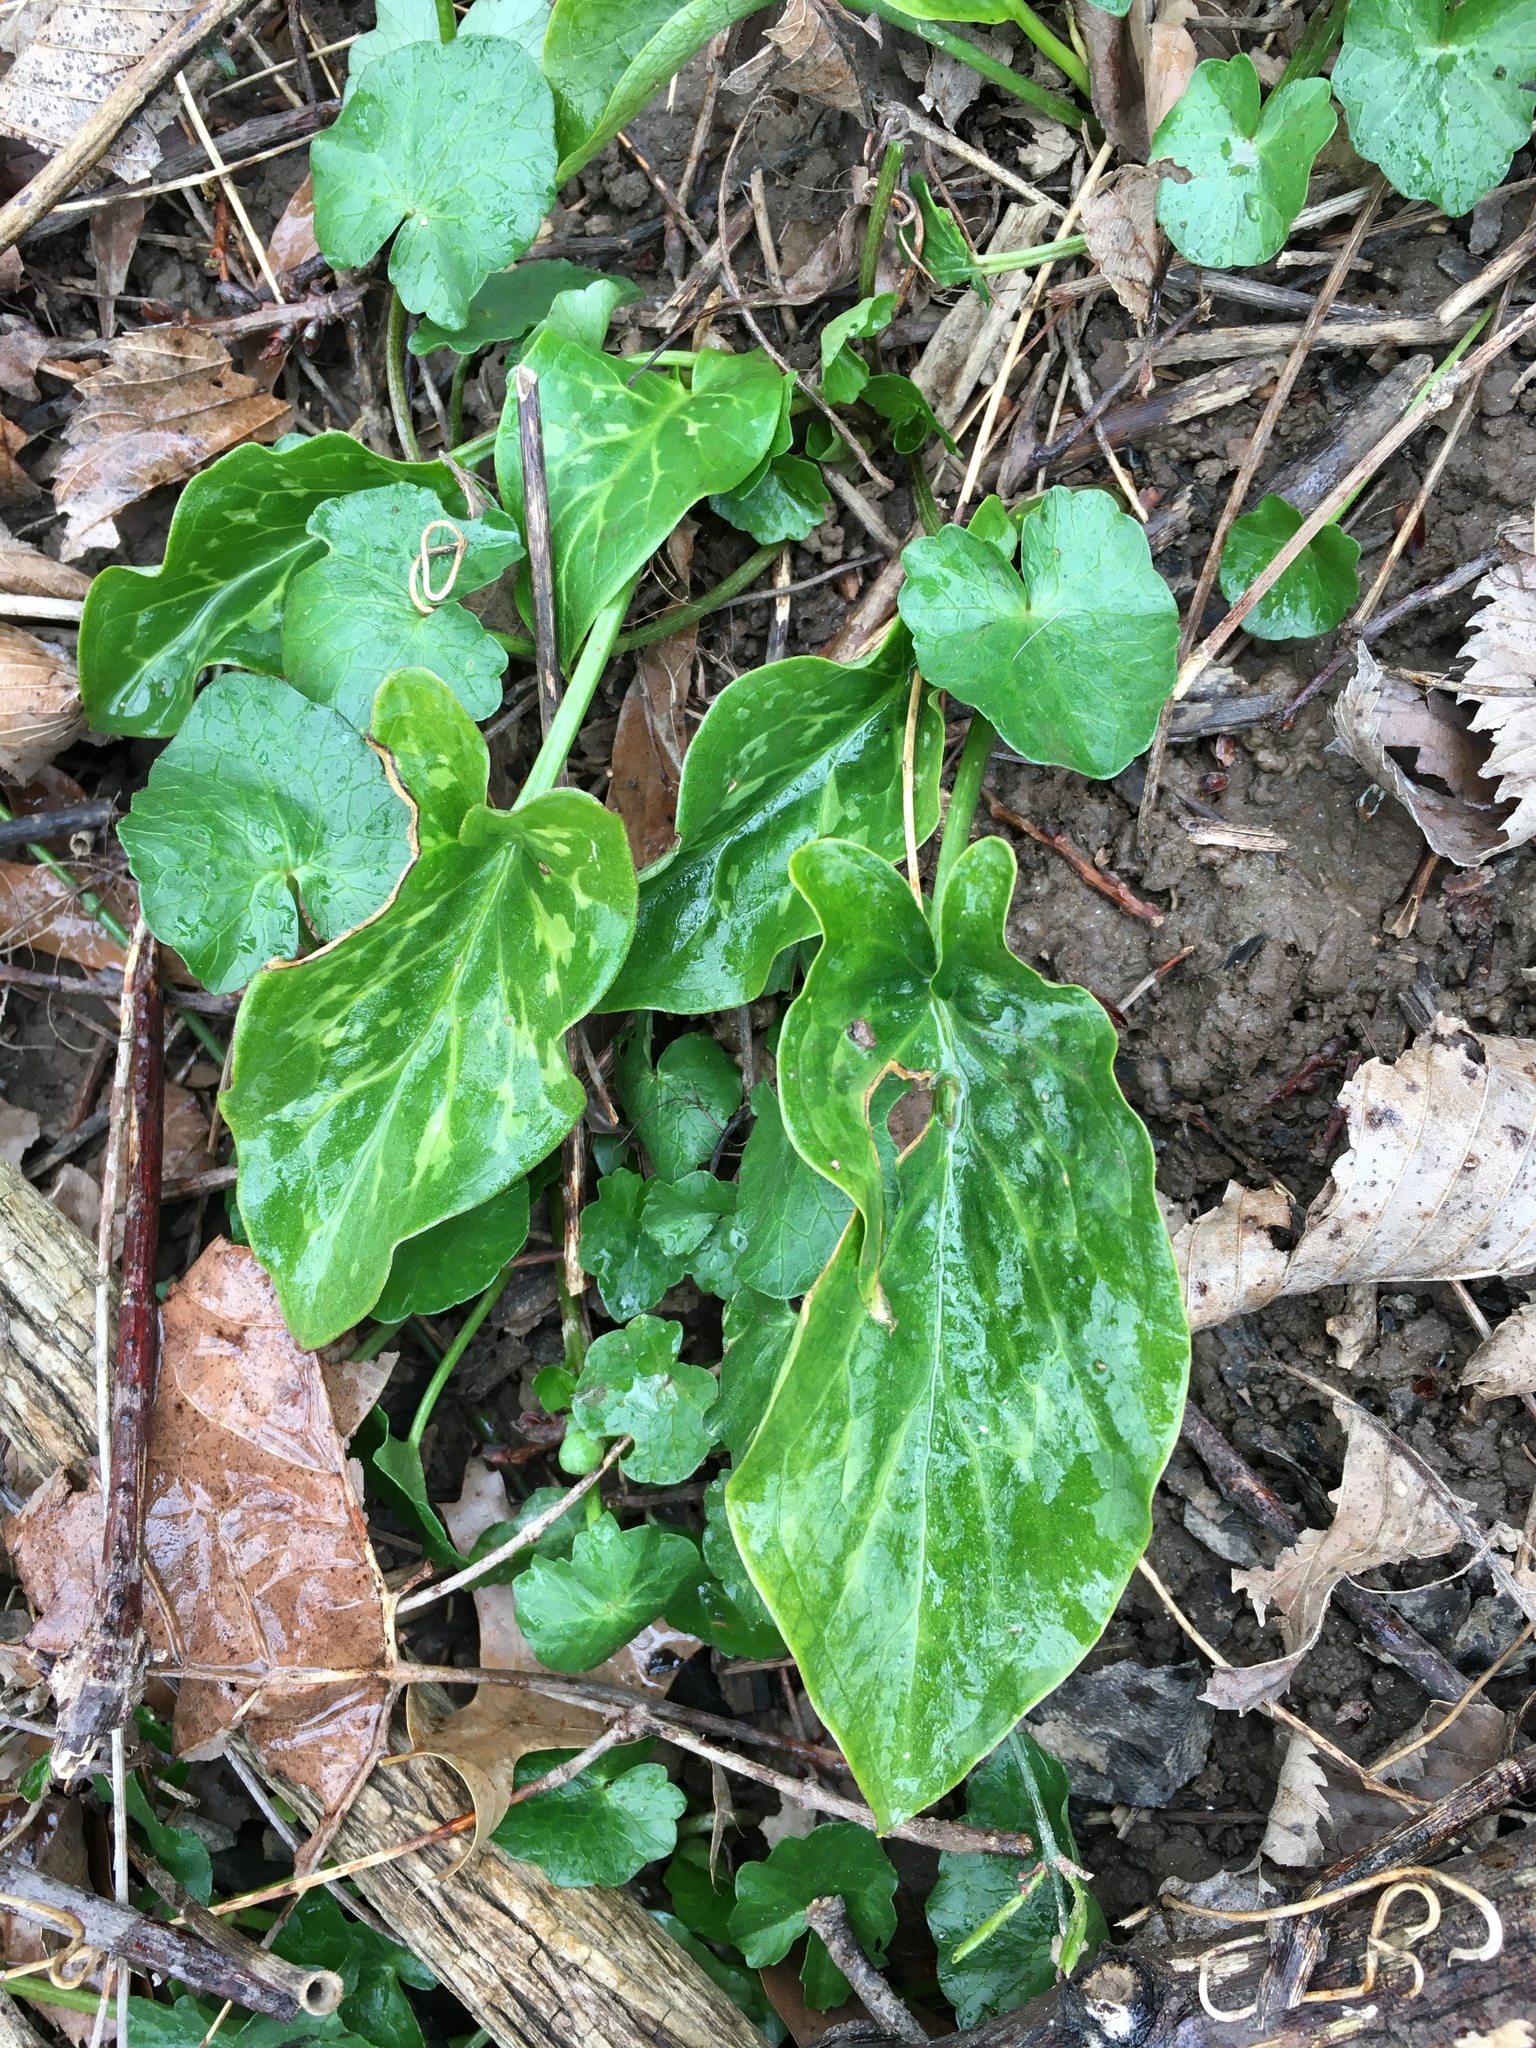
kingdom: Plantae
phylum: Tracheophyta
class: Liliopsida
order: Alismatales
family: Araceae
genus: Arum
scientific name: Arum italicum
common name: Italian lords-and-ladies
